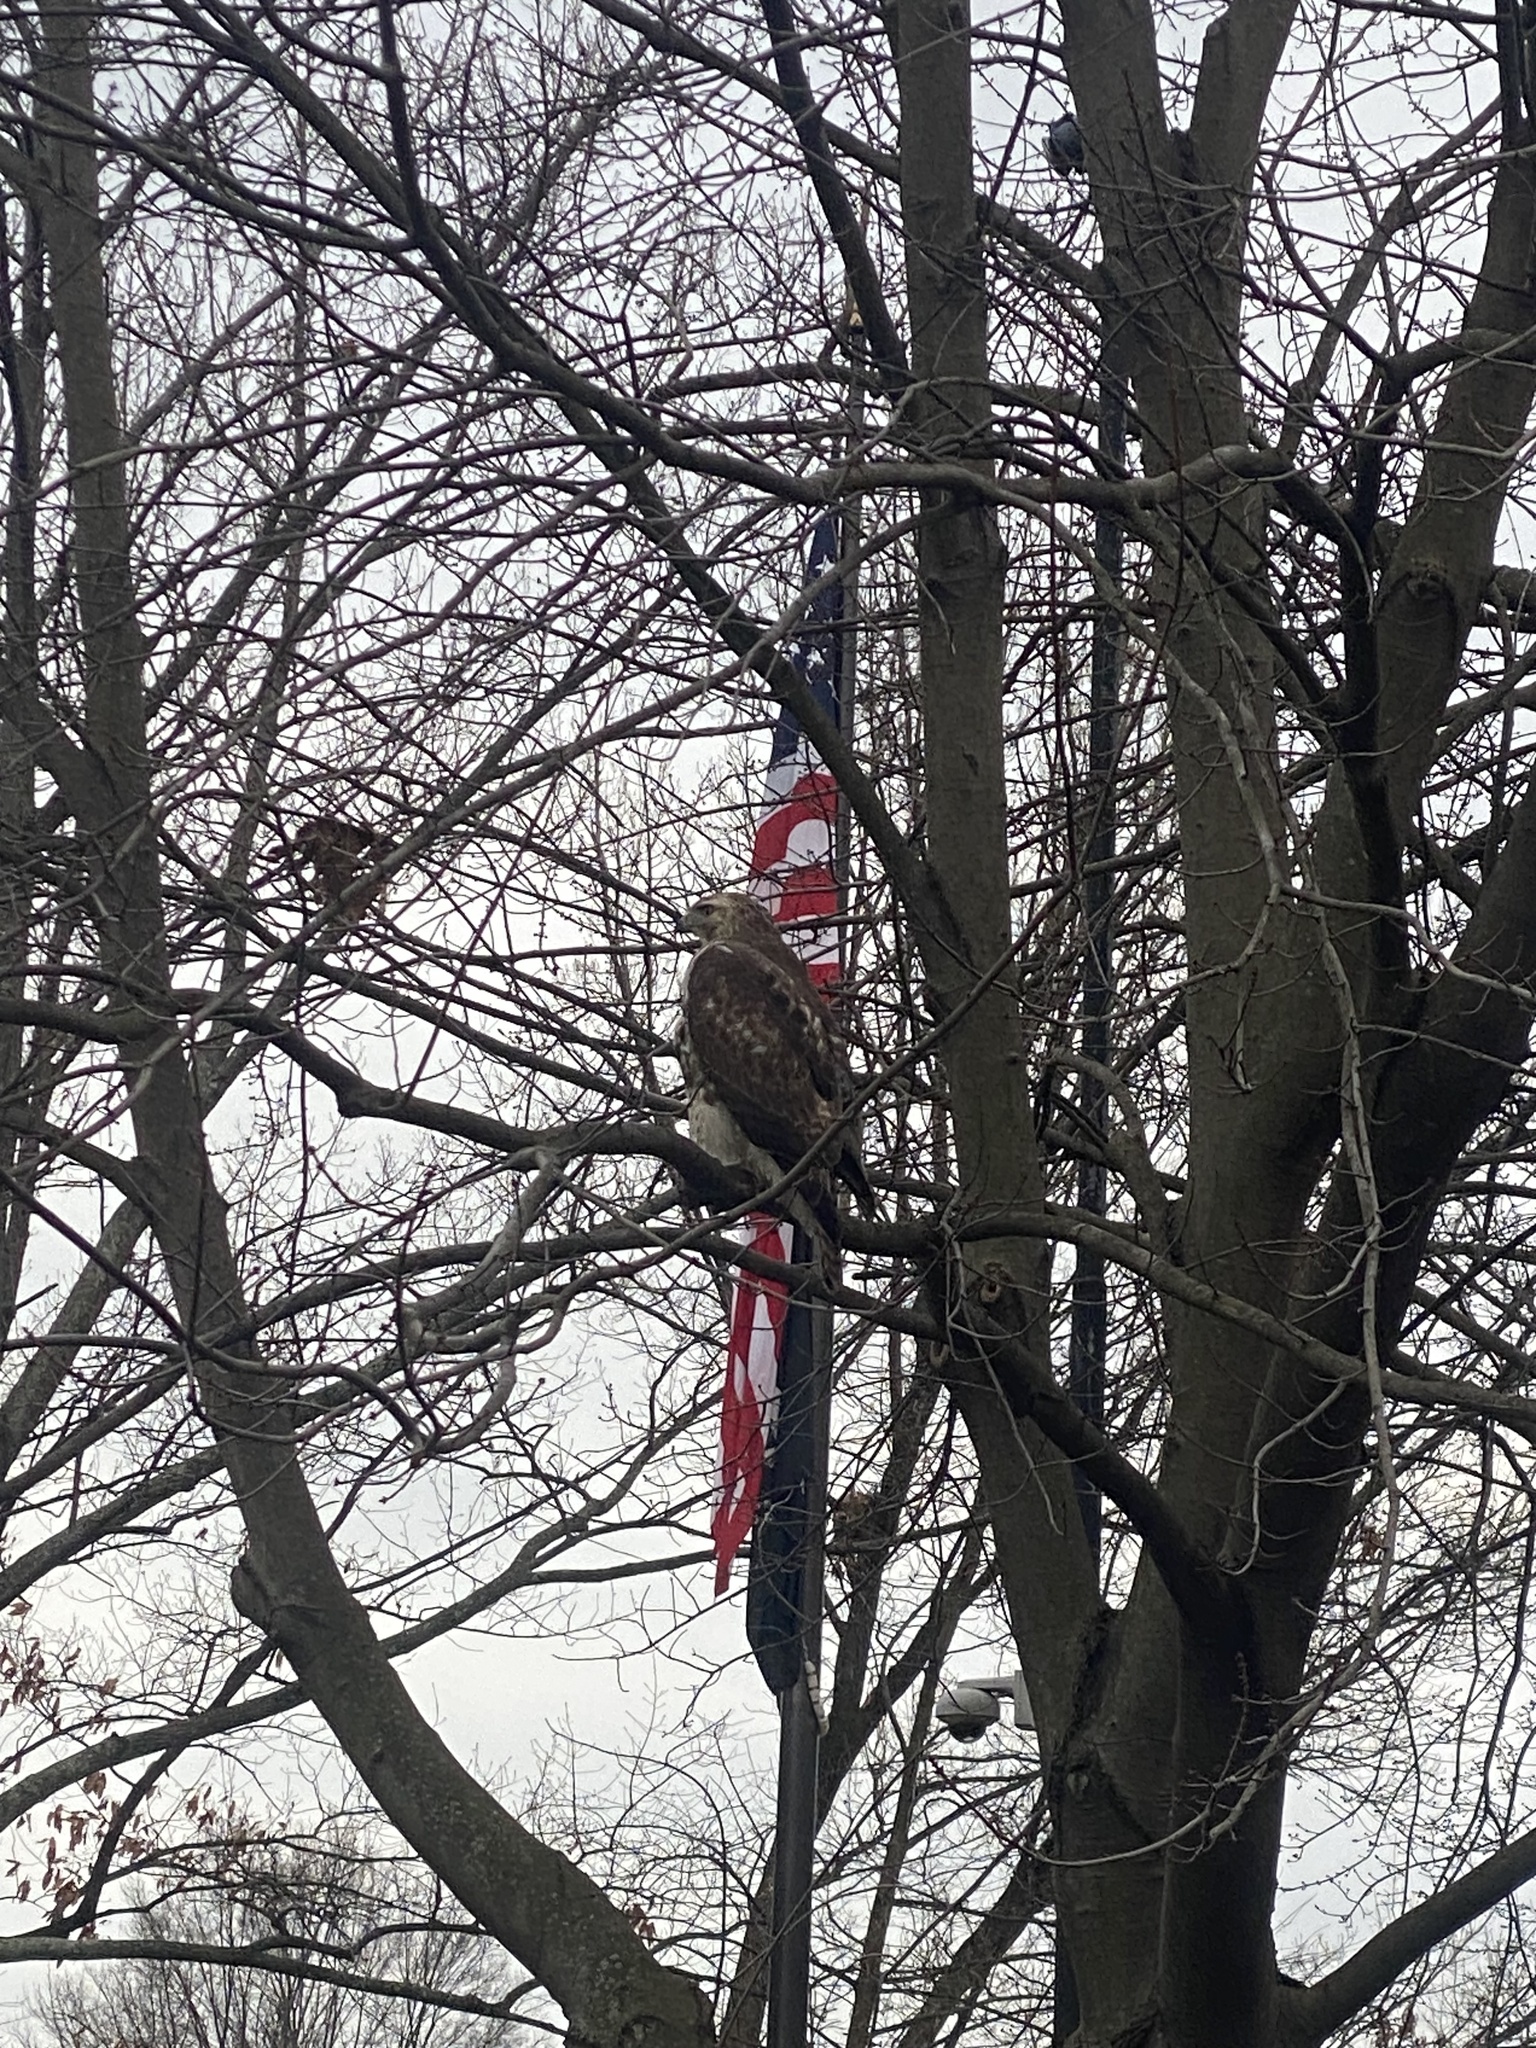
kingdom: Animalia
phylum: Chordata
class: Aves
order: Accipitriformes
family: Accipitridae
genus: Buteo
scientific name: Buteo jamaicensis
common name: Red-tailed hawk
